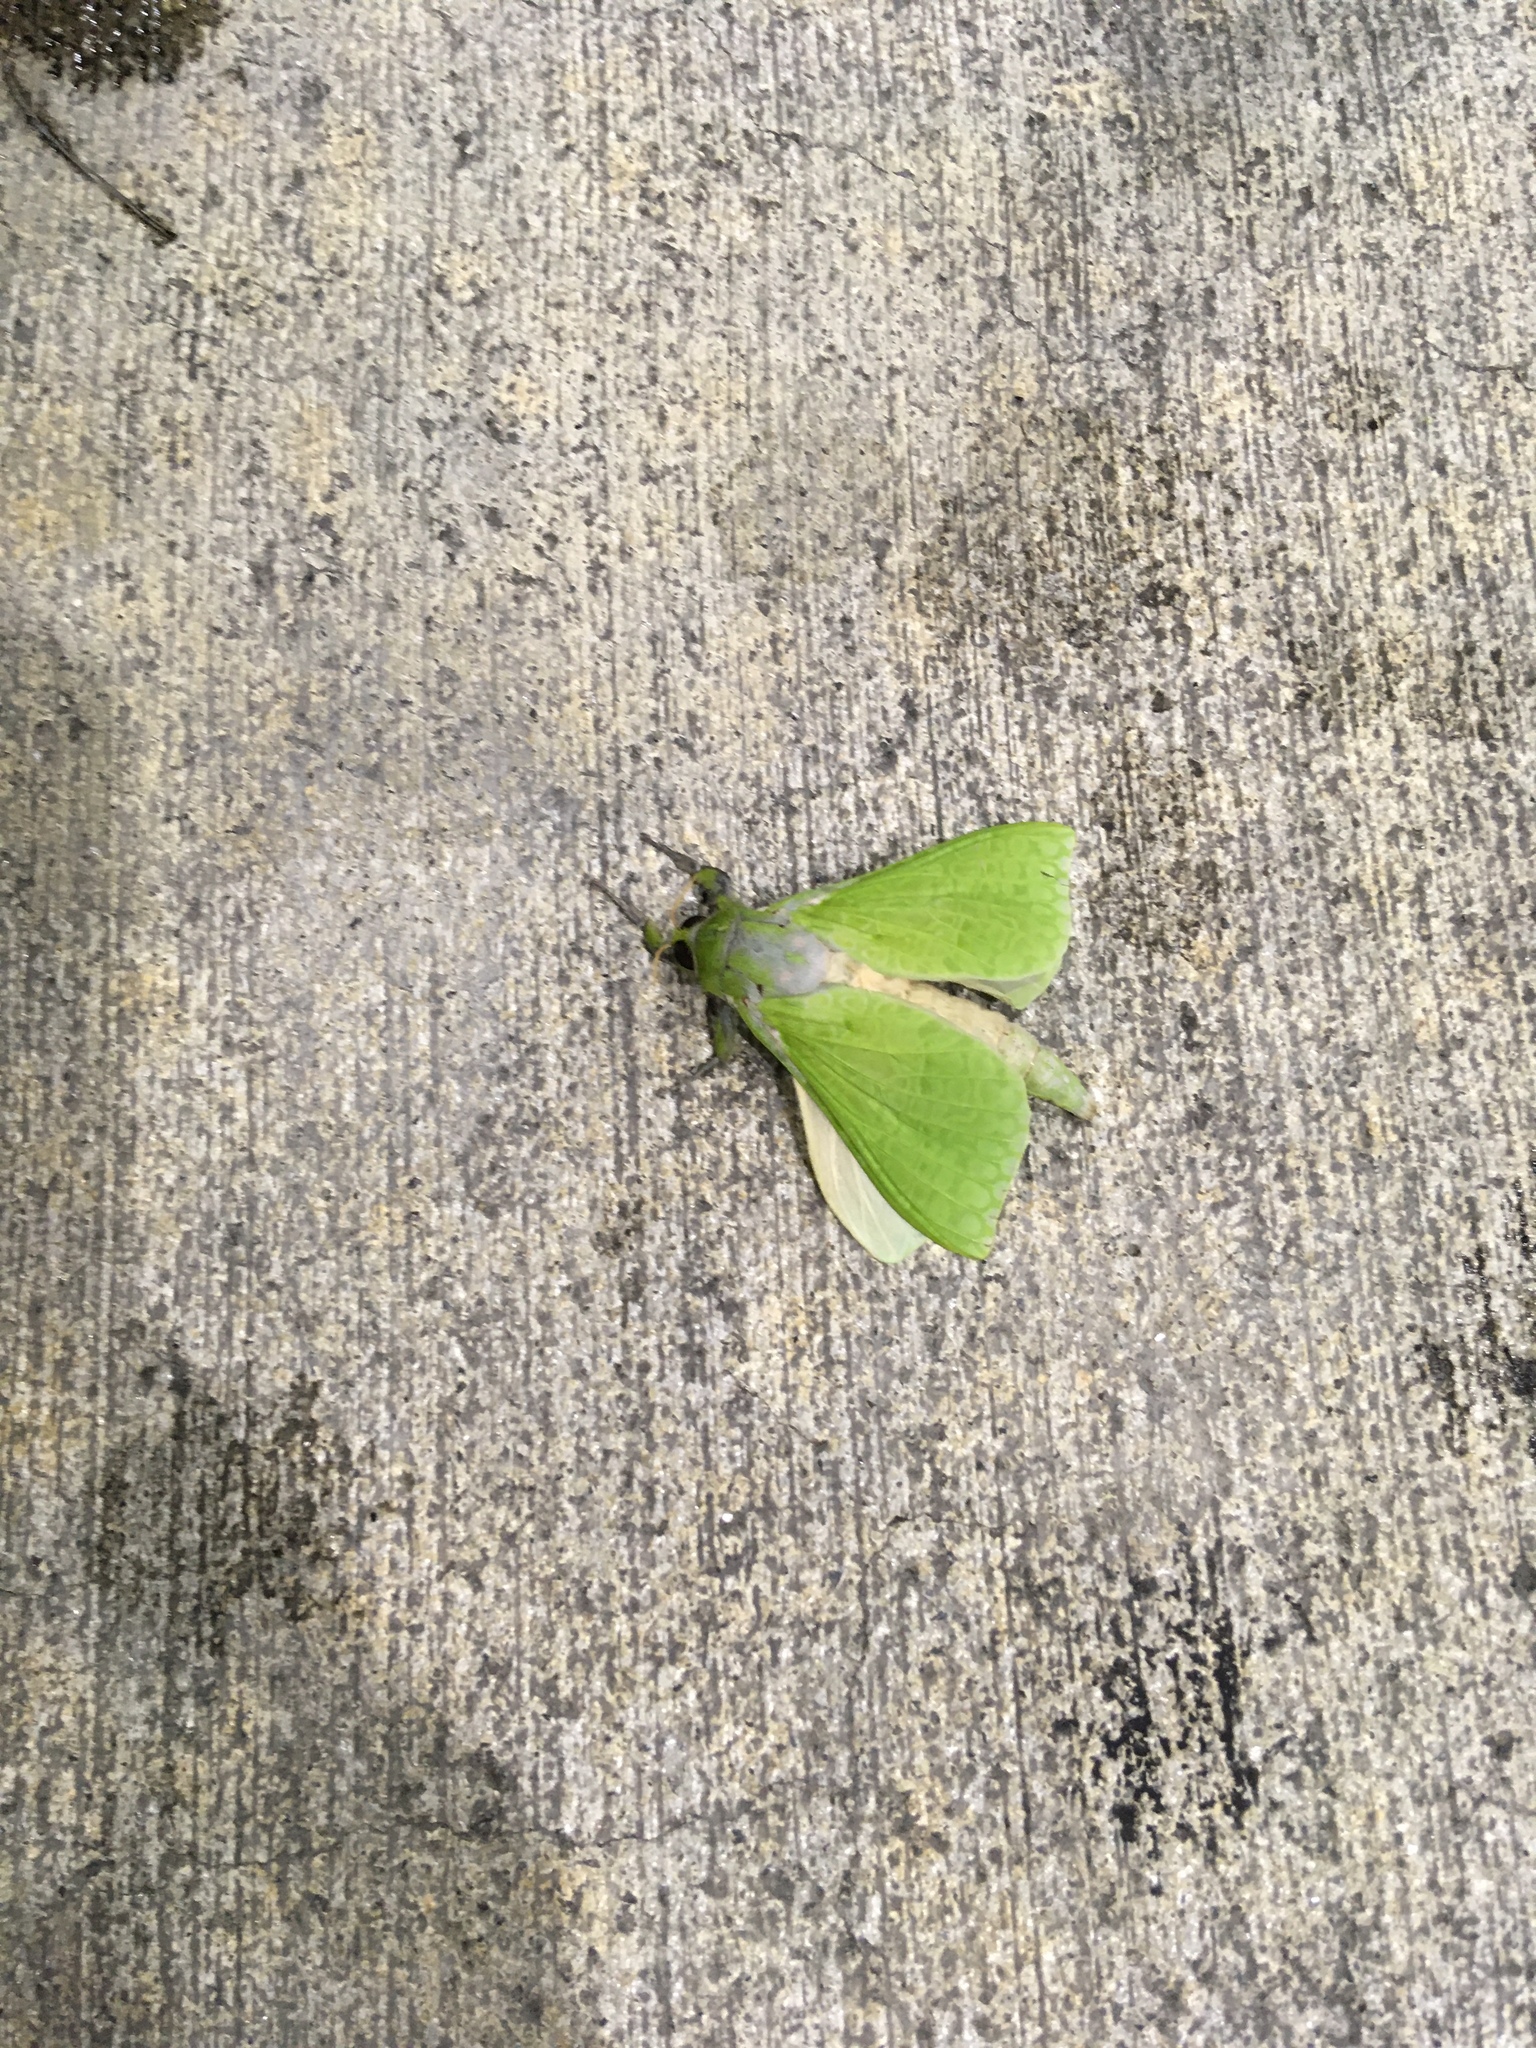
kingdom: Animalia
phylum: Arthropoda
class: Insecta
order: Lepidoptera
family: Hepialidae
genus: Aenetus
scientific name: Aenetus virescens
